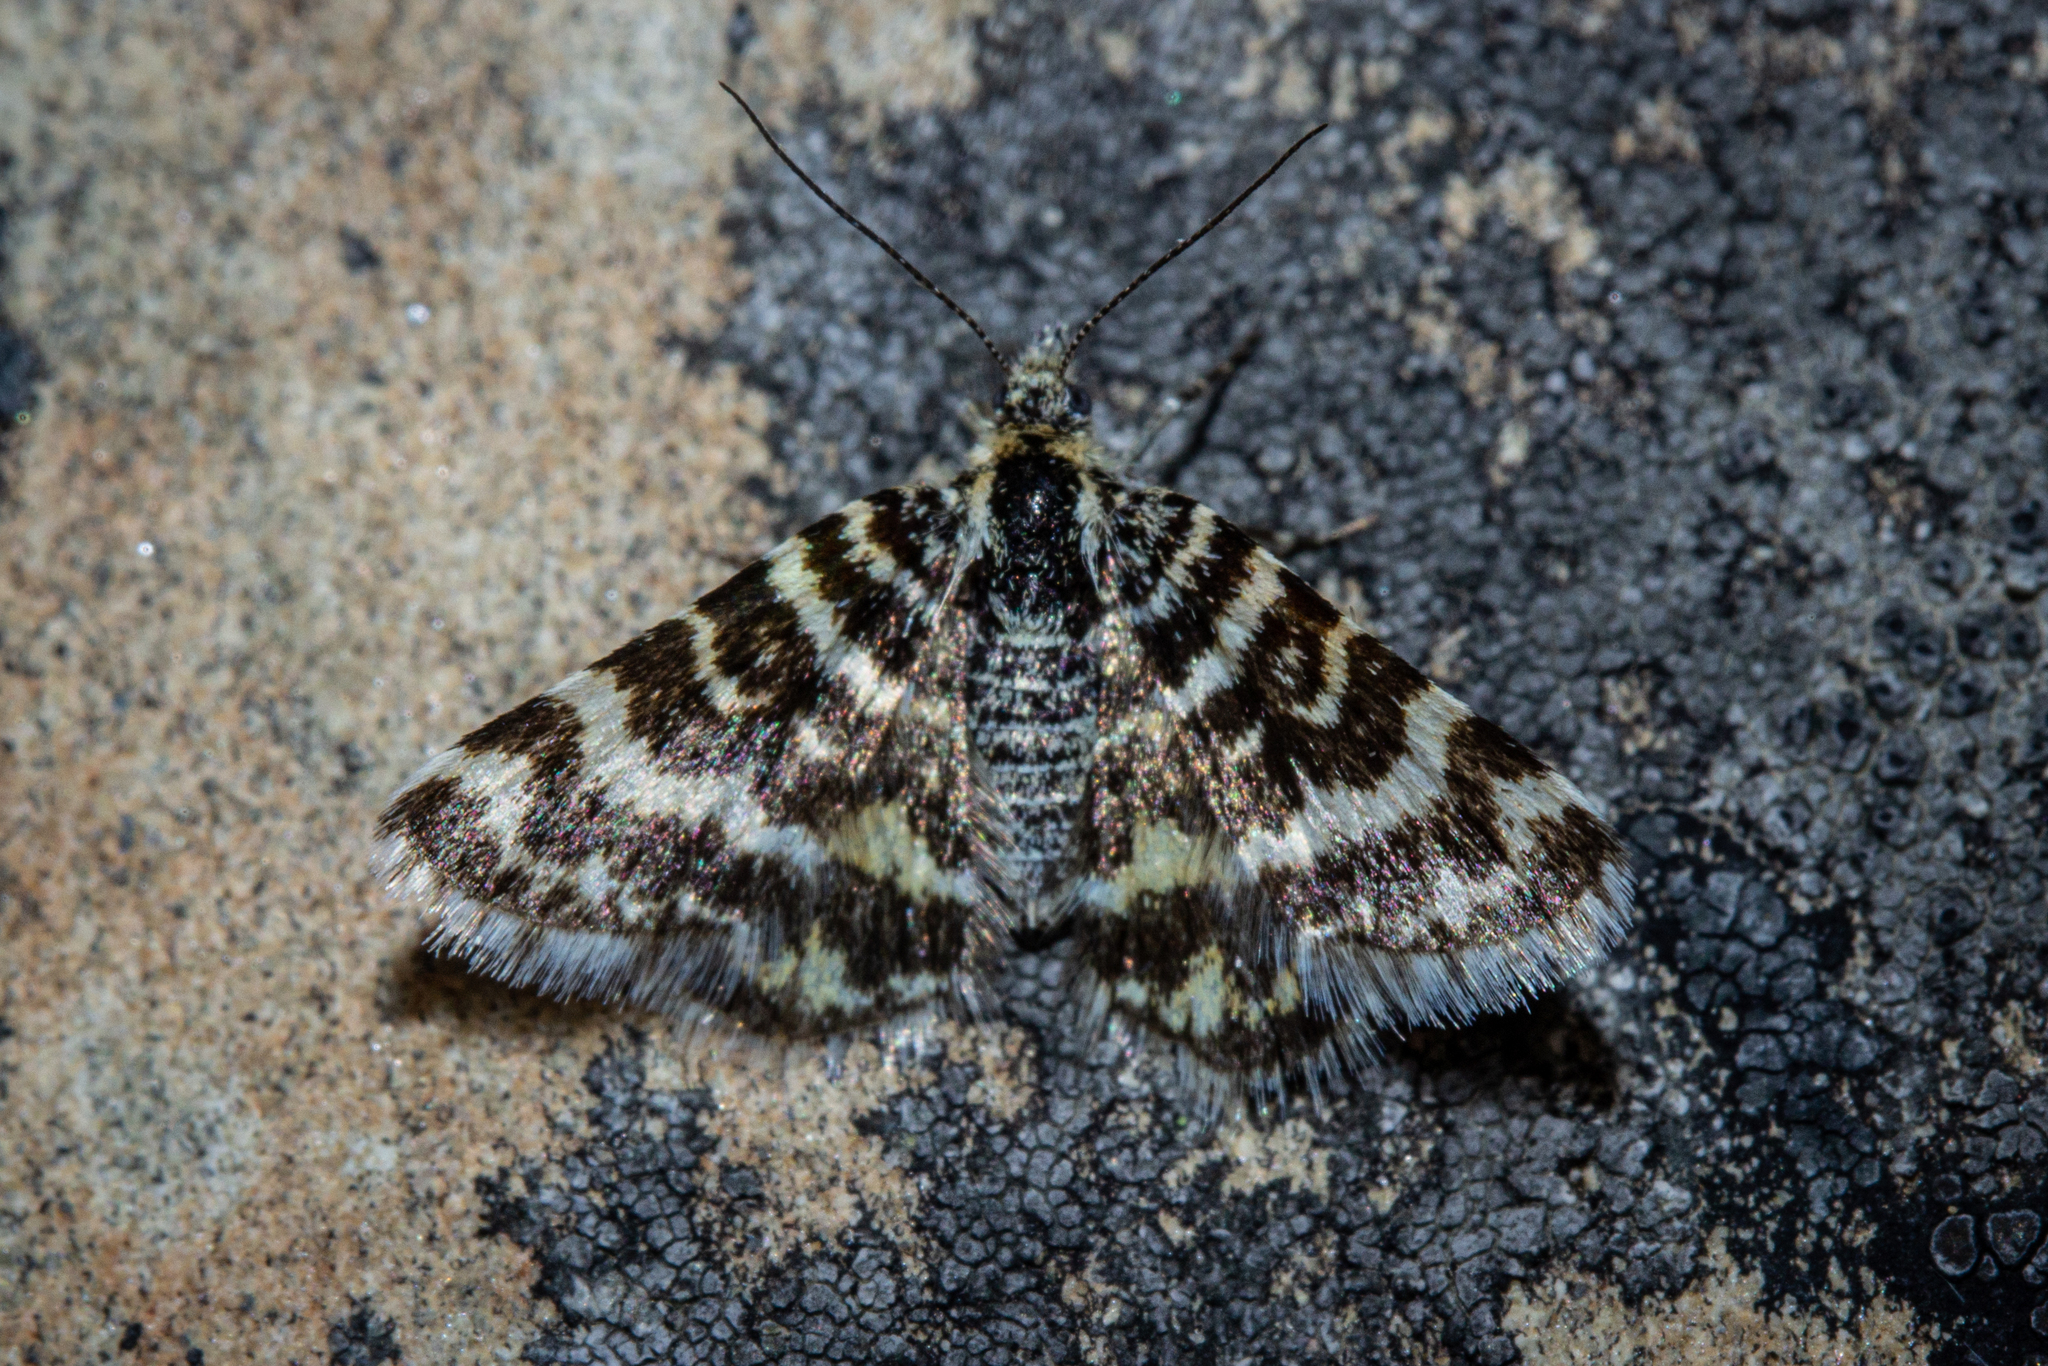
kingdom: Animalia
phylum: Arthropoda
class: Insecta
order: Lepidoptera
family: Geometridae
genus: Notoreas
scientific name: Notoreas hexaleuca
